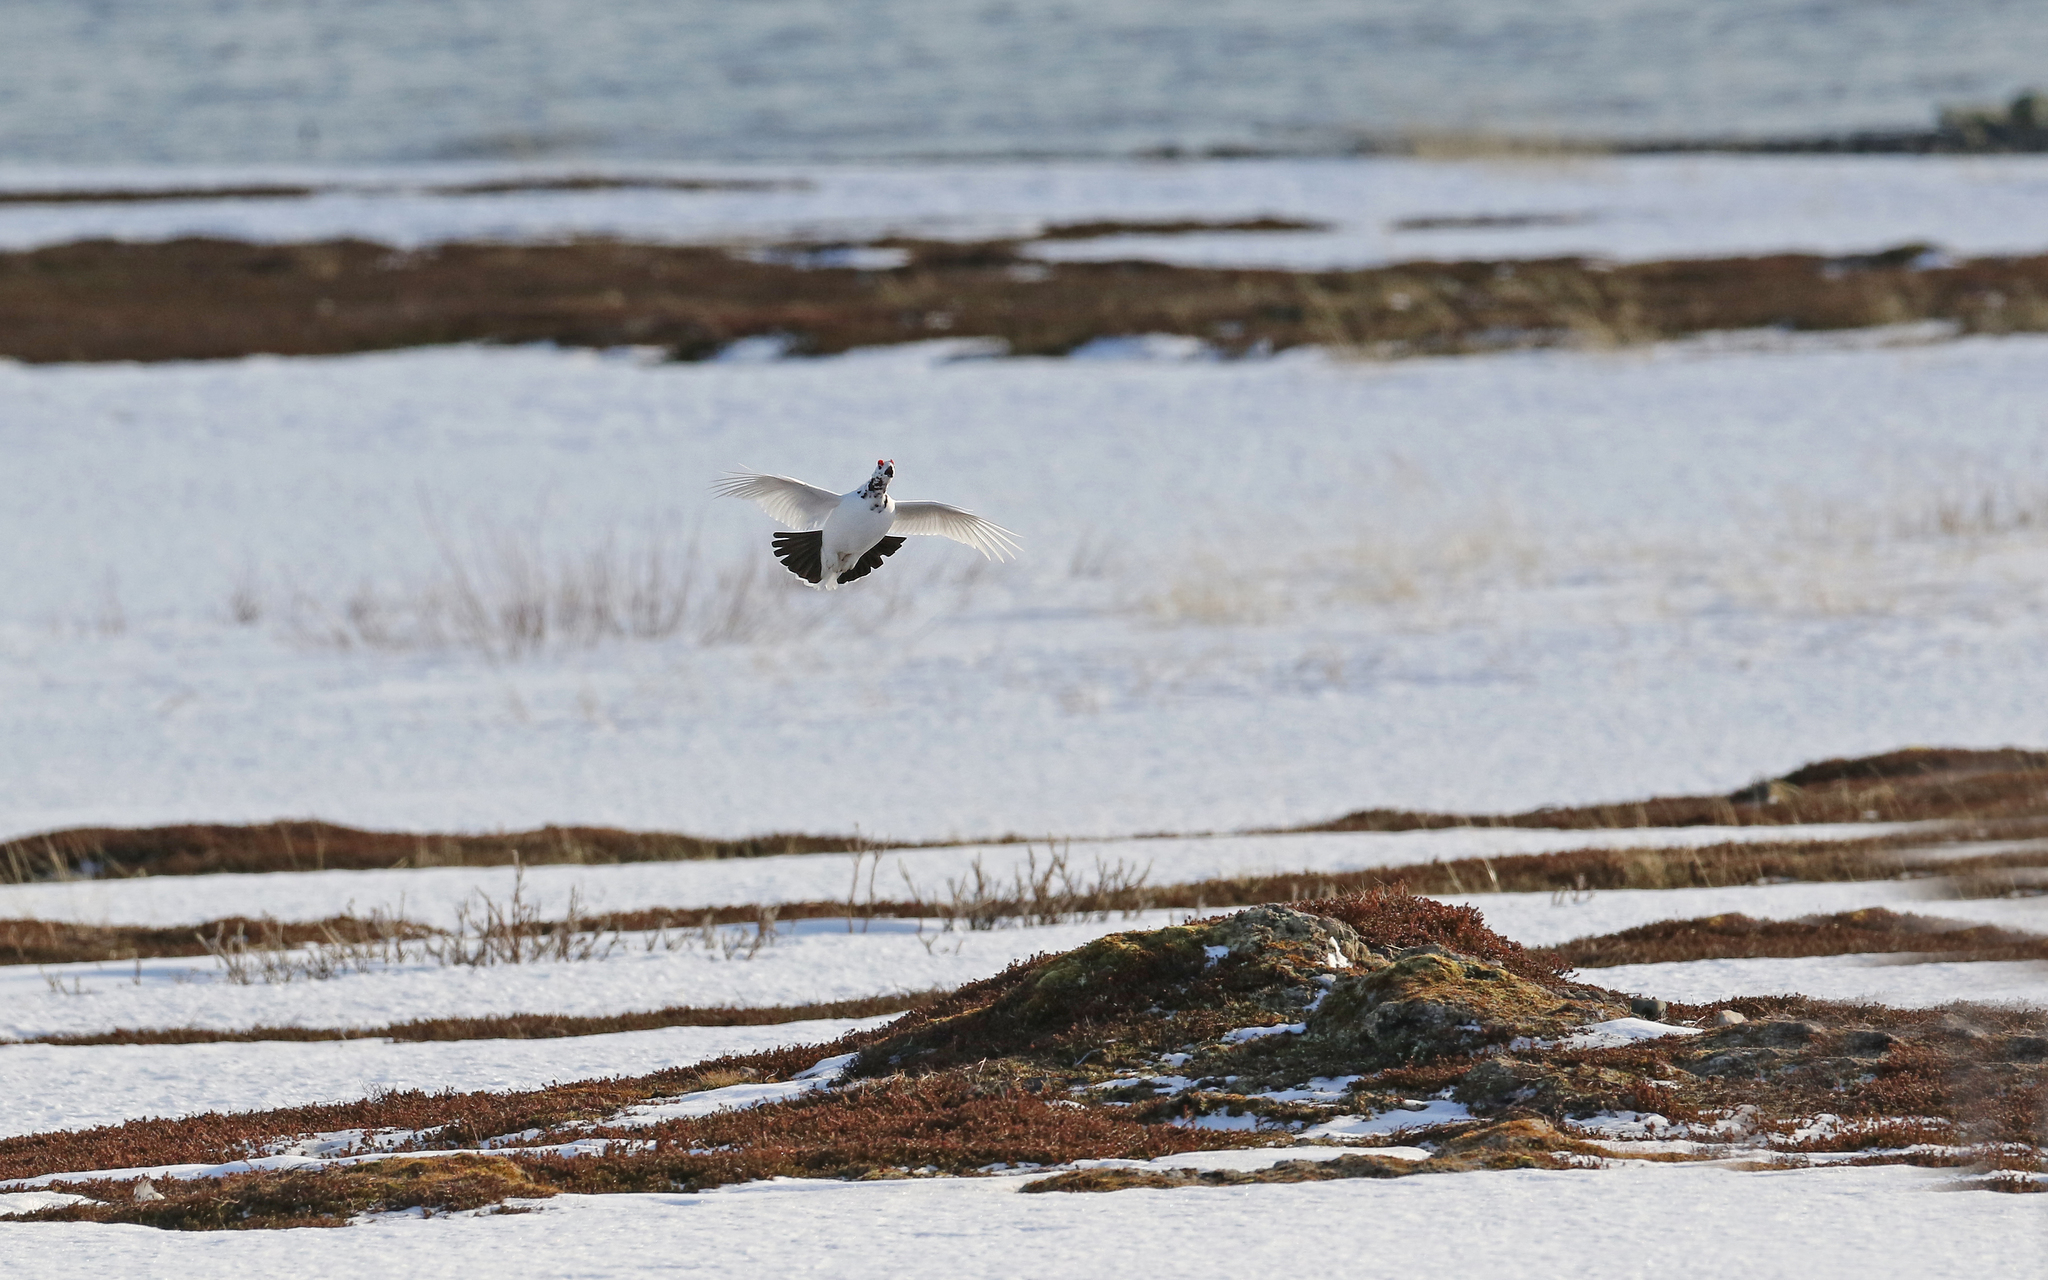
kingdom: Animalia
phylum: Chordata
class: Aves
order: Galliformes
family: Phasianidae
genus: Lagopus
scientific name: Lagopus lagopus
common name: Willow ptarmigan
